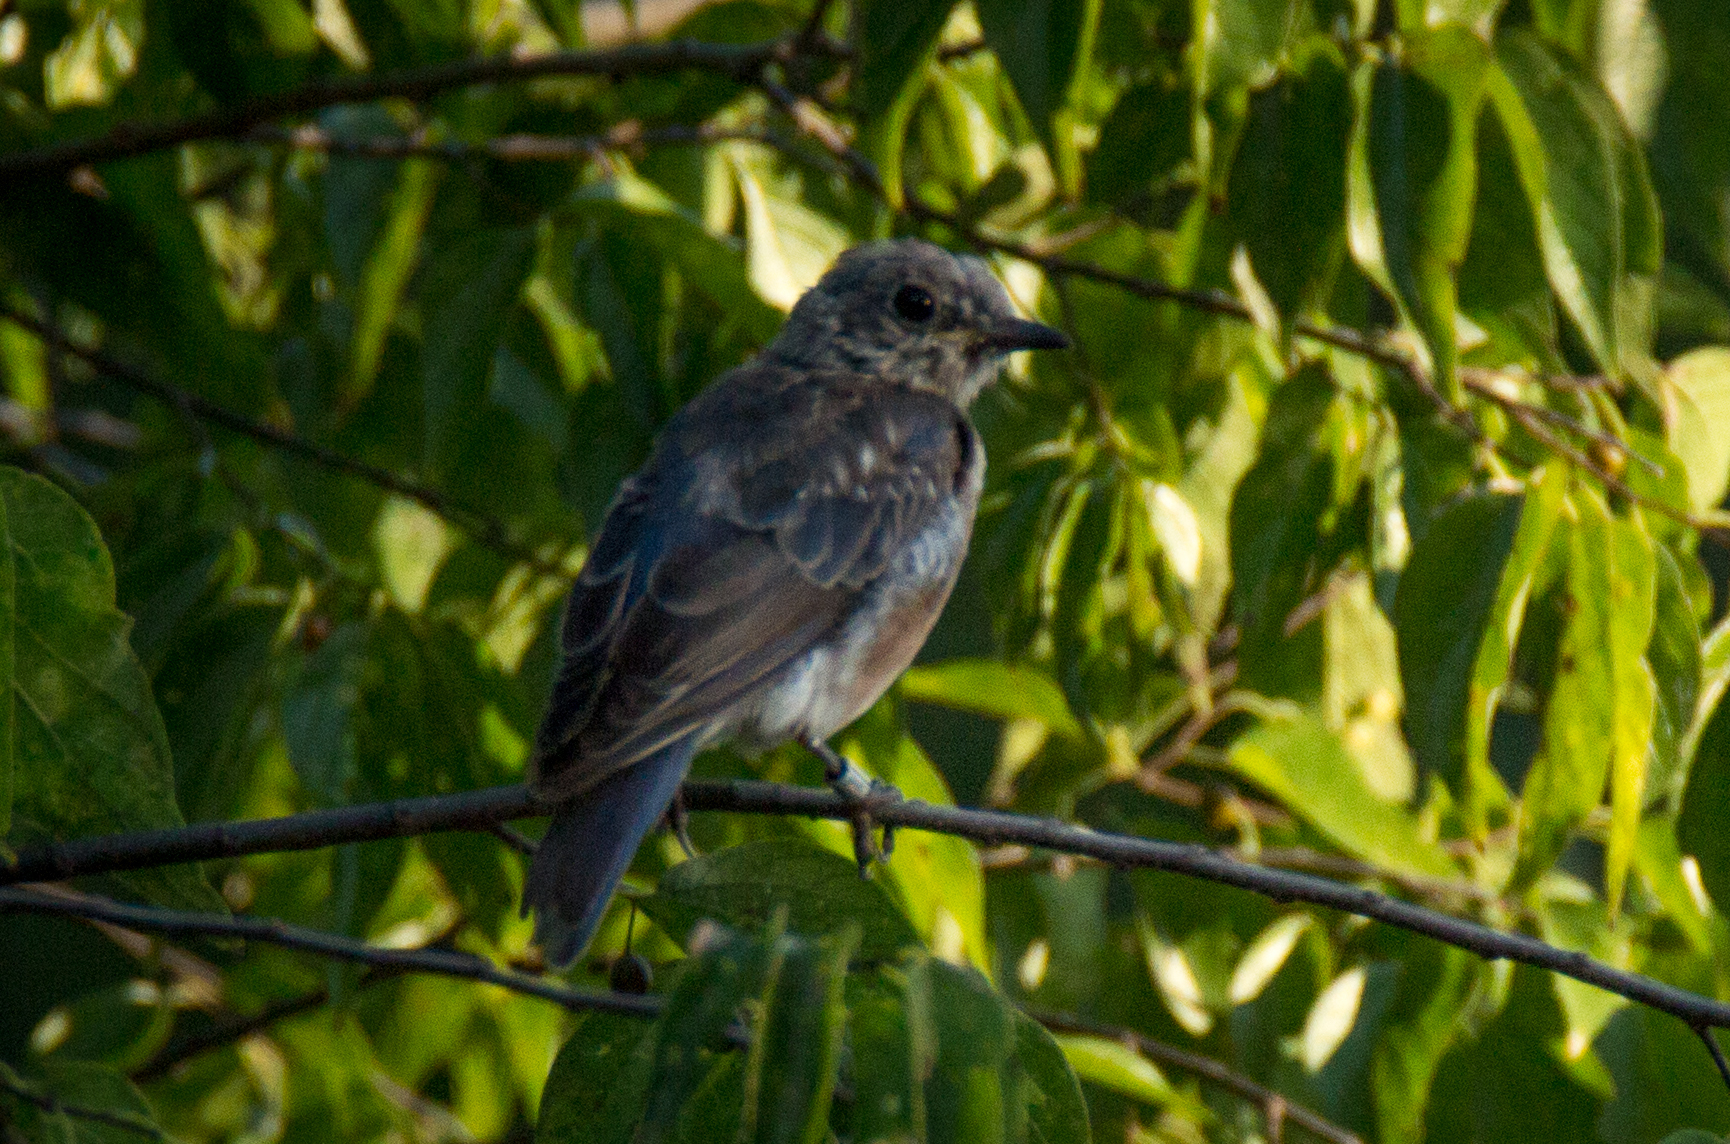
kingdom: Animalia
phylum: Chordata
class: Aves
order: Passeriformes
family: Turdidae
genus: Sialia
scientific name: Sialia sialis
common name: Eastern bluebird
